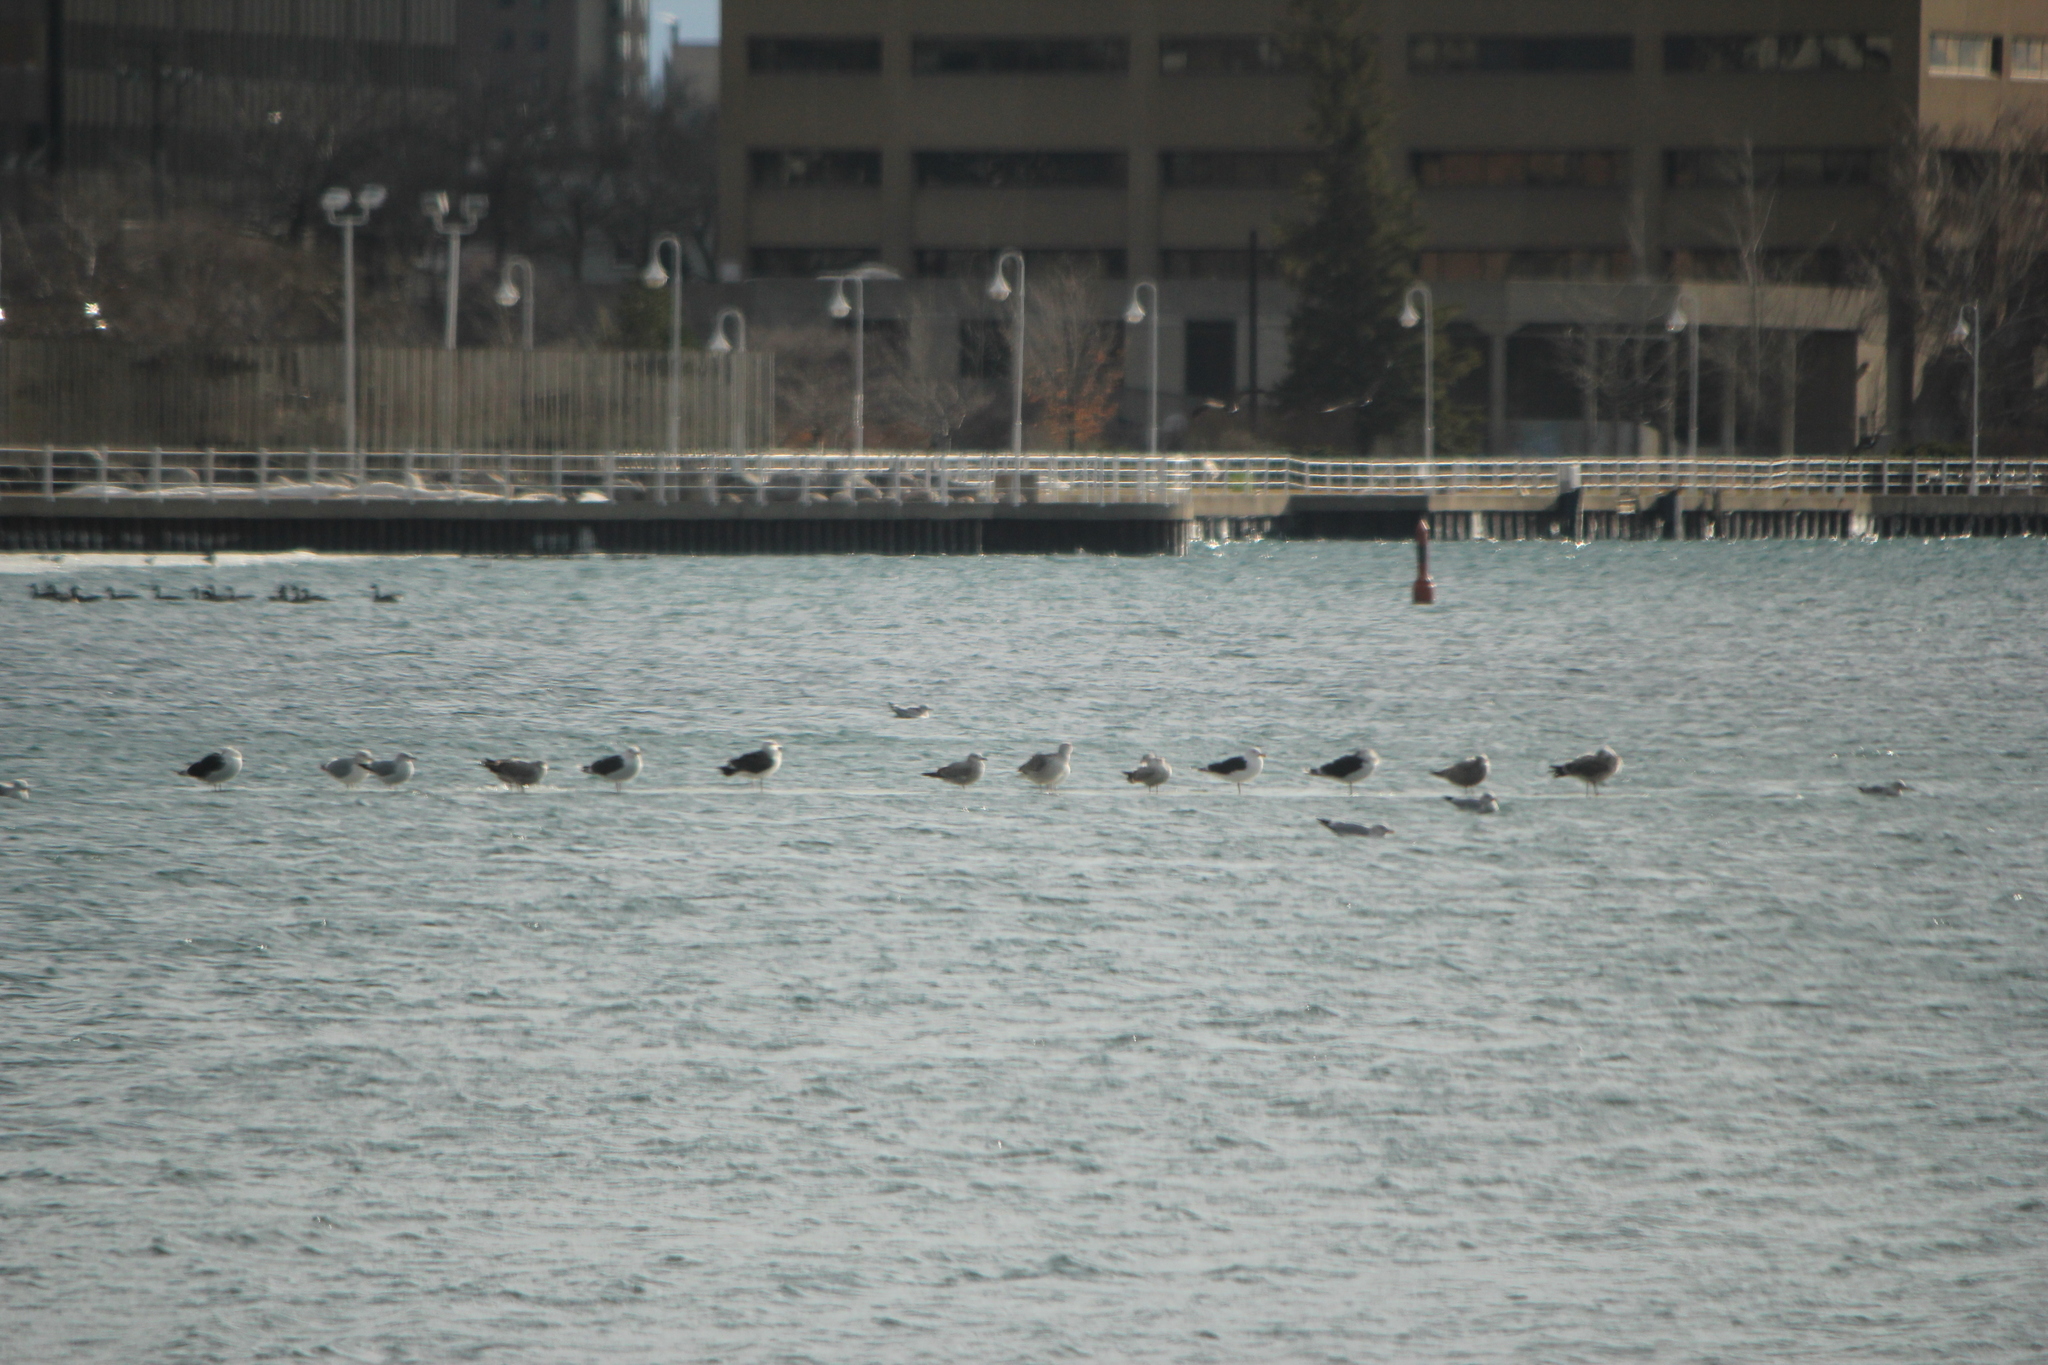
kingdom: Animalia
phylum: Chordata
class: Aves
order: Charadriiformes
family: Laridae
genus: Larus
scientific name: Larus marinus
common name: Great black-backed gull
